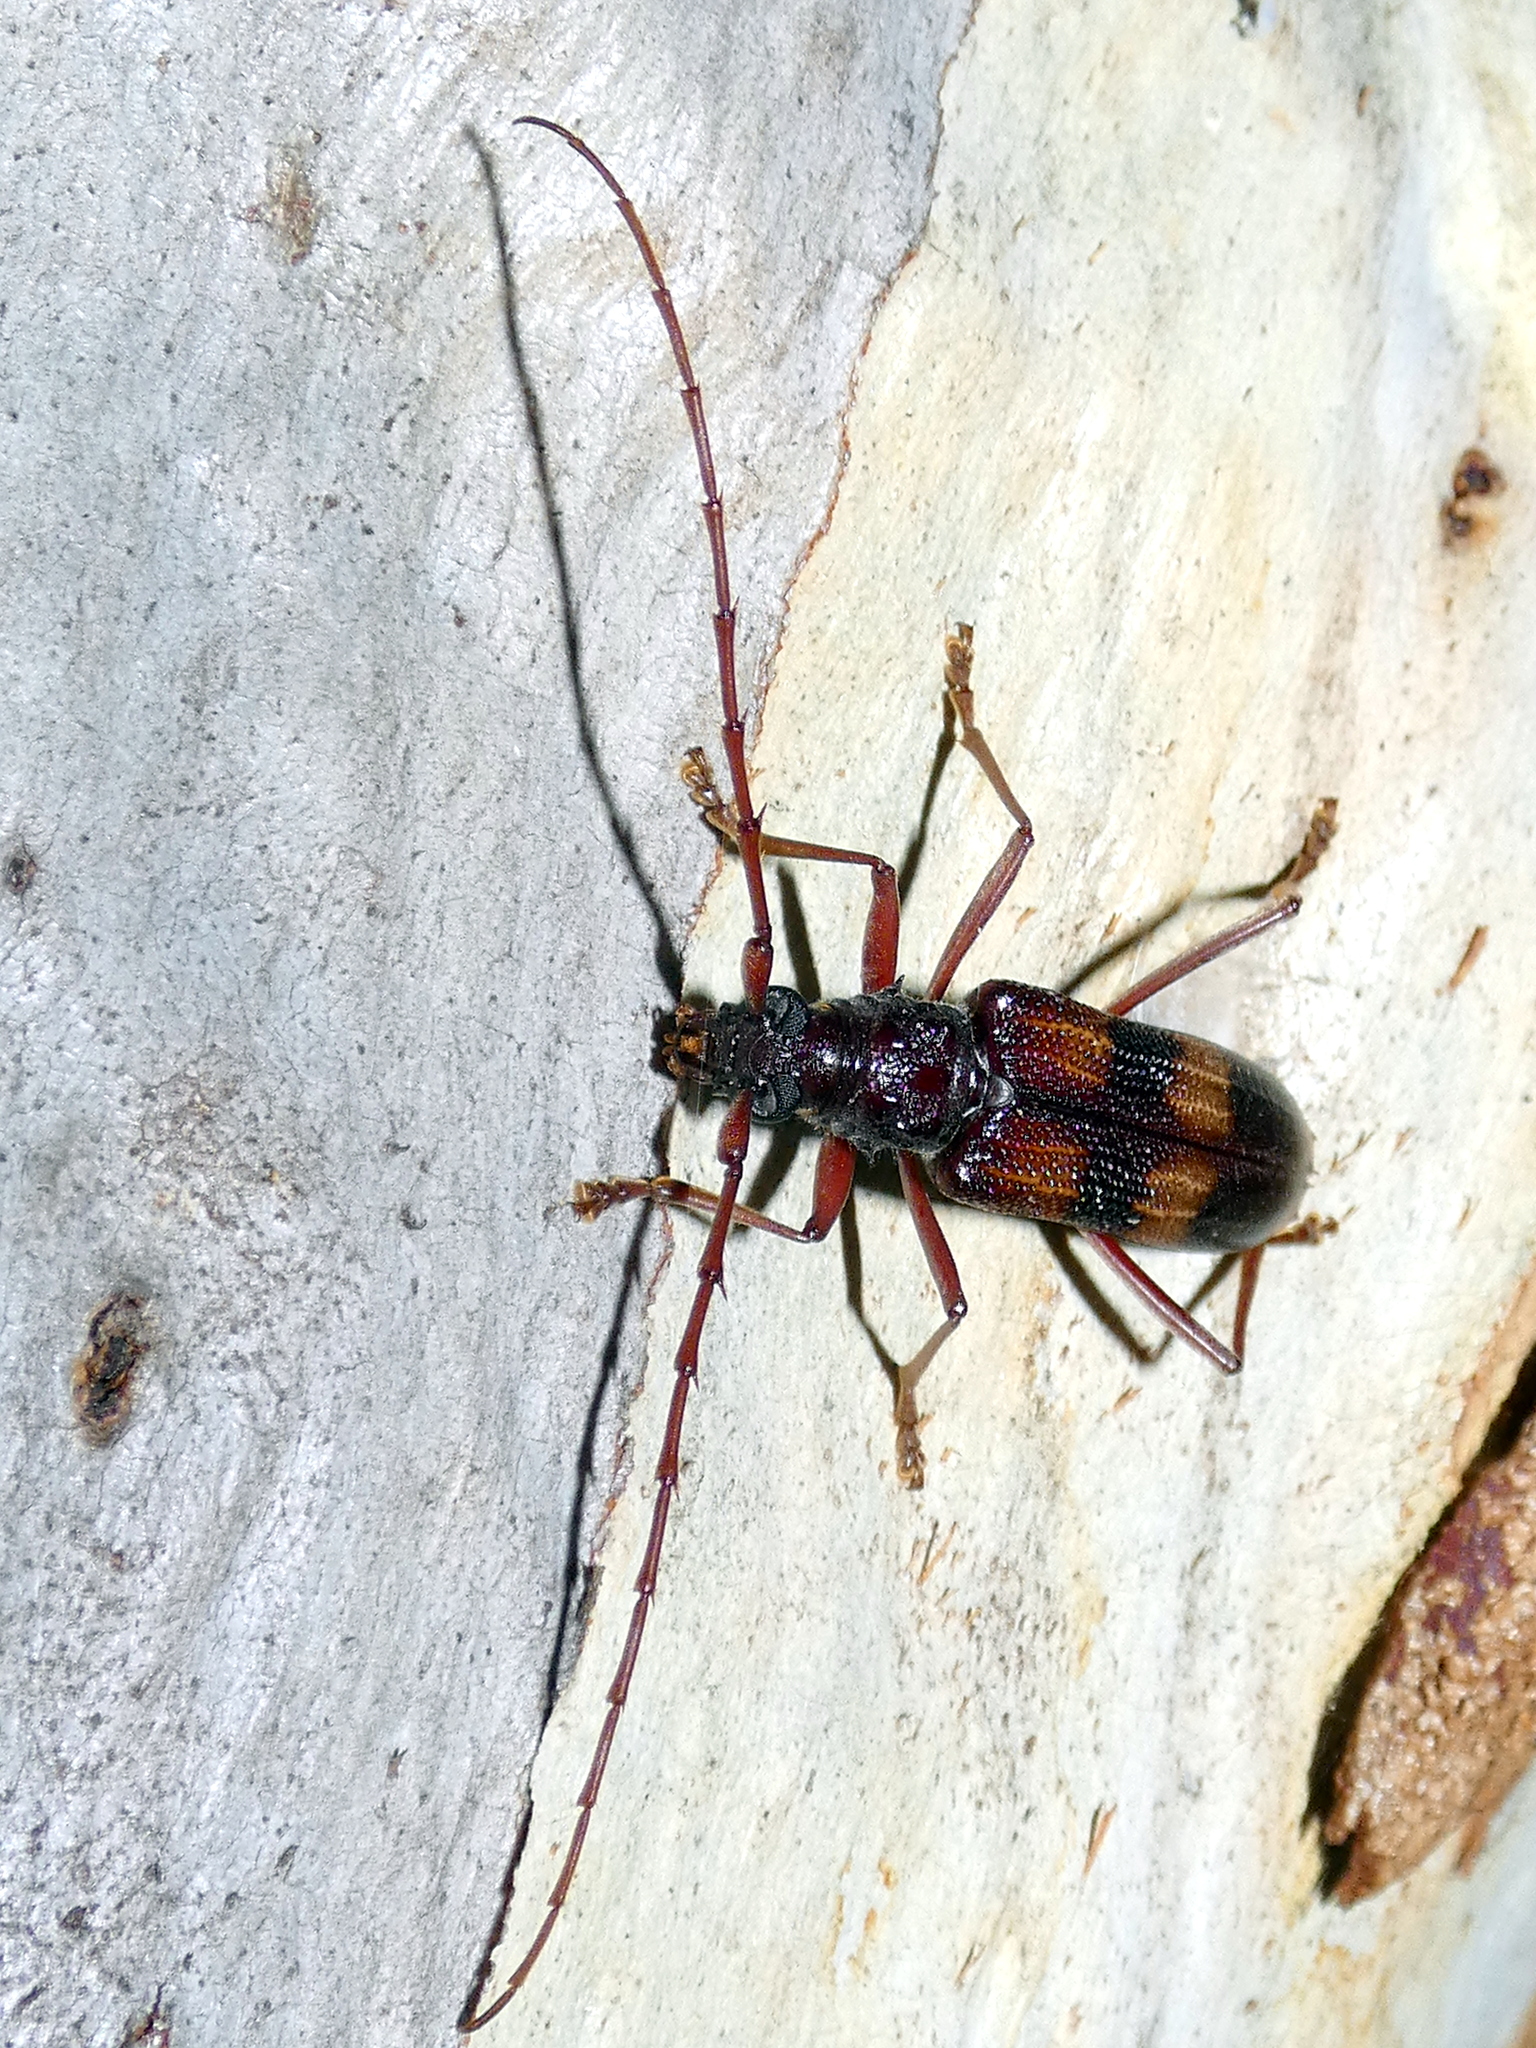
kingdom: Animalia
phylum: Arthropoda
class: Insecta
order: Coleoptera
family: Cerambycidae
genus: Phoracantha
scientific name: Phoracantha alternata
